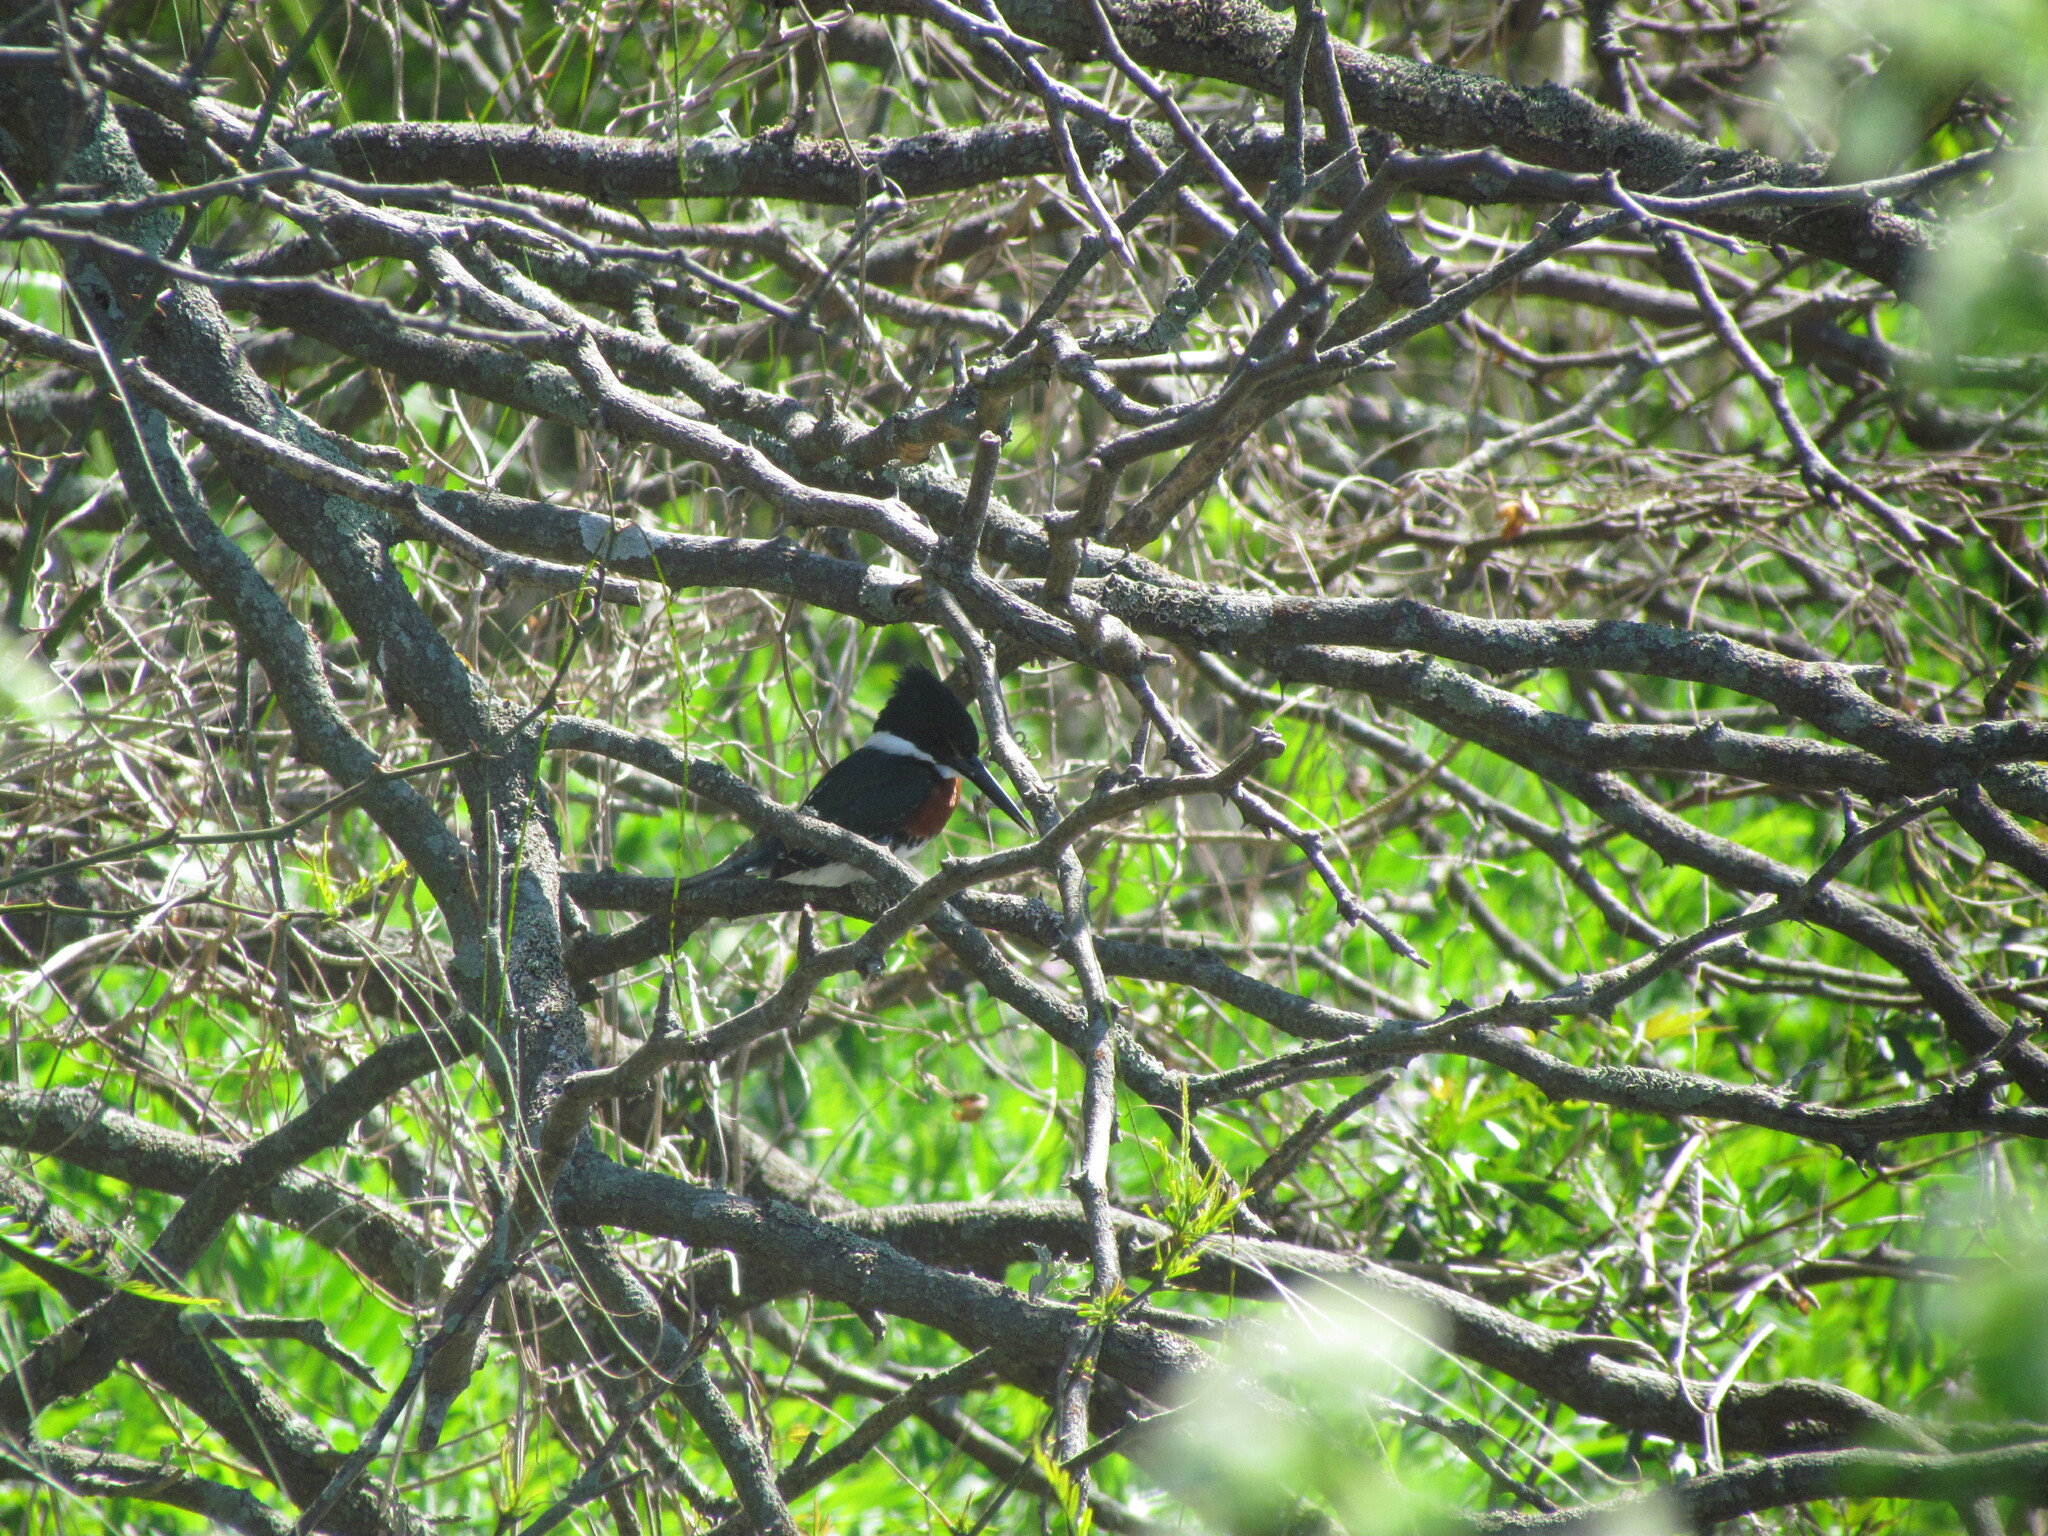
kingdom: Animalia
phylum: Chordata
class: Aves
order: Coraciiformes
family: Alcedinidae
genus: Chloroceryle
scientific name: Chloroceryle americana
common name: Green kingfisher
